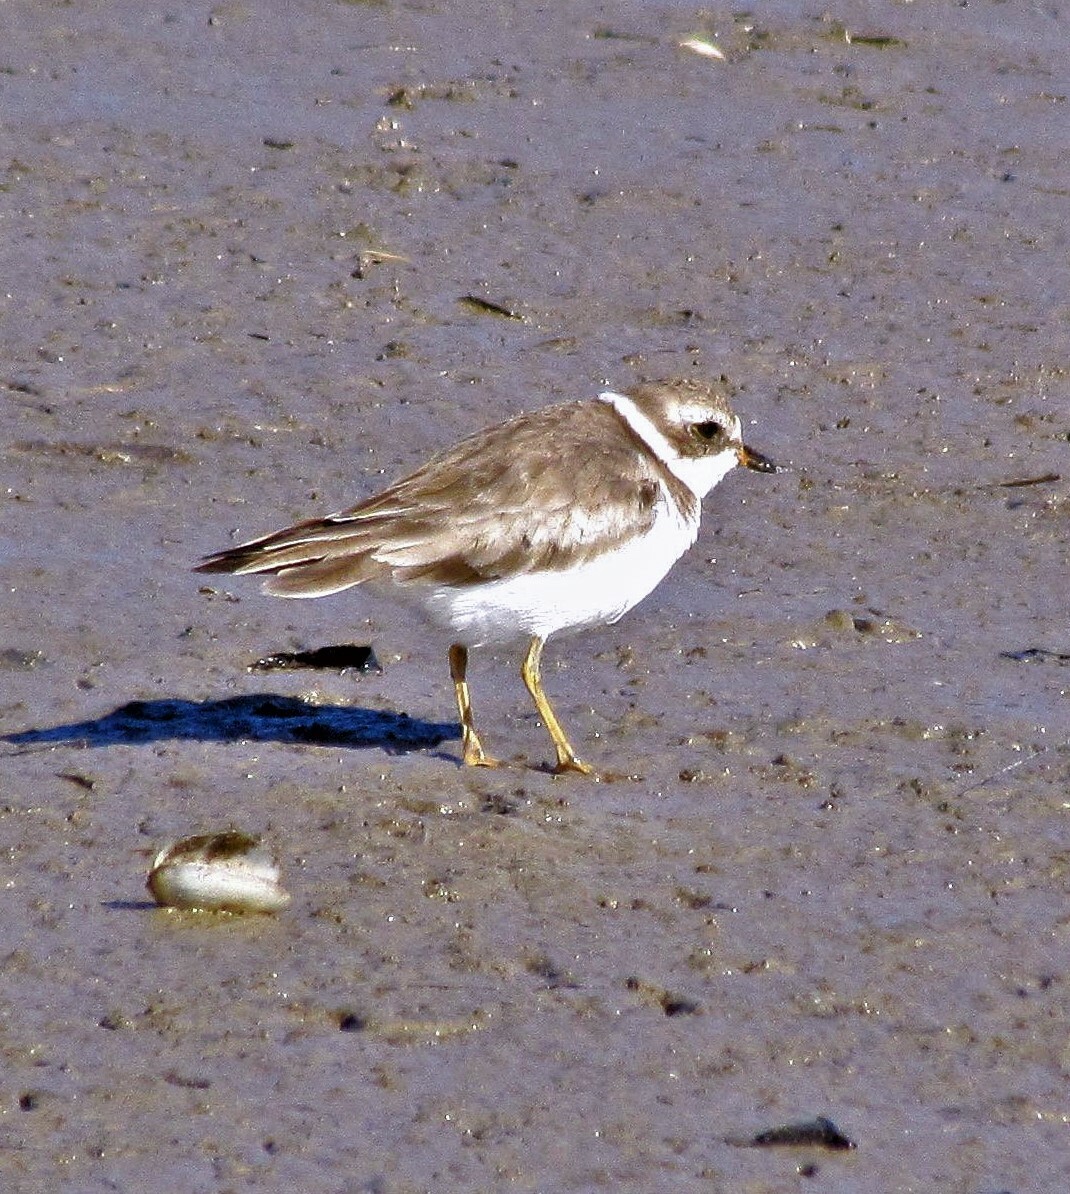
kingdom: Animalia
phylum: Chordata
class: Aves
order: Charadriiformes
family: Charadriidae
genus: Charadrius
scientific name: Charadrius semipalmatus
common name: Semipalmated plover
